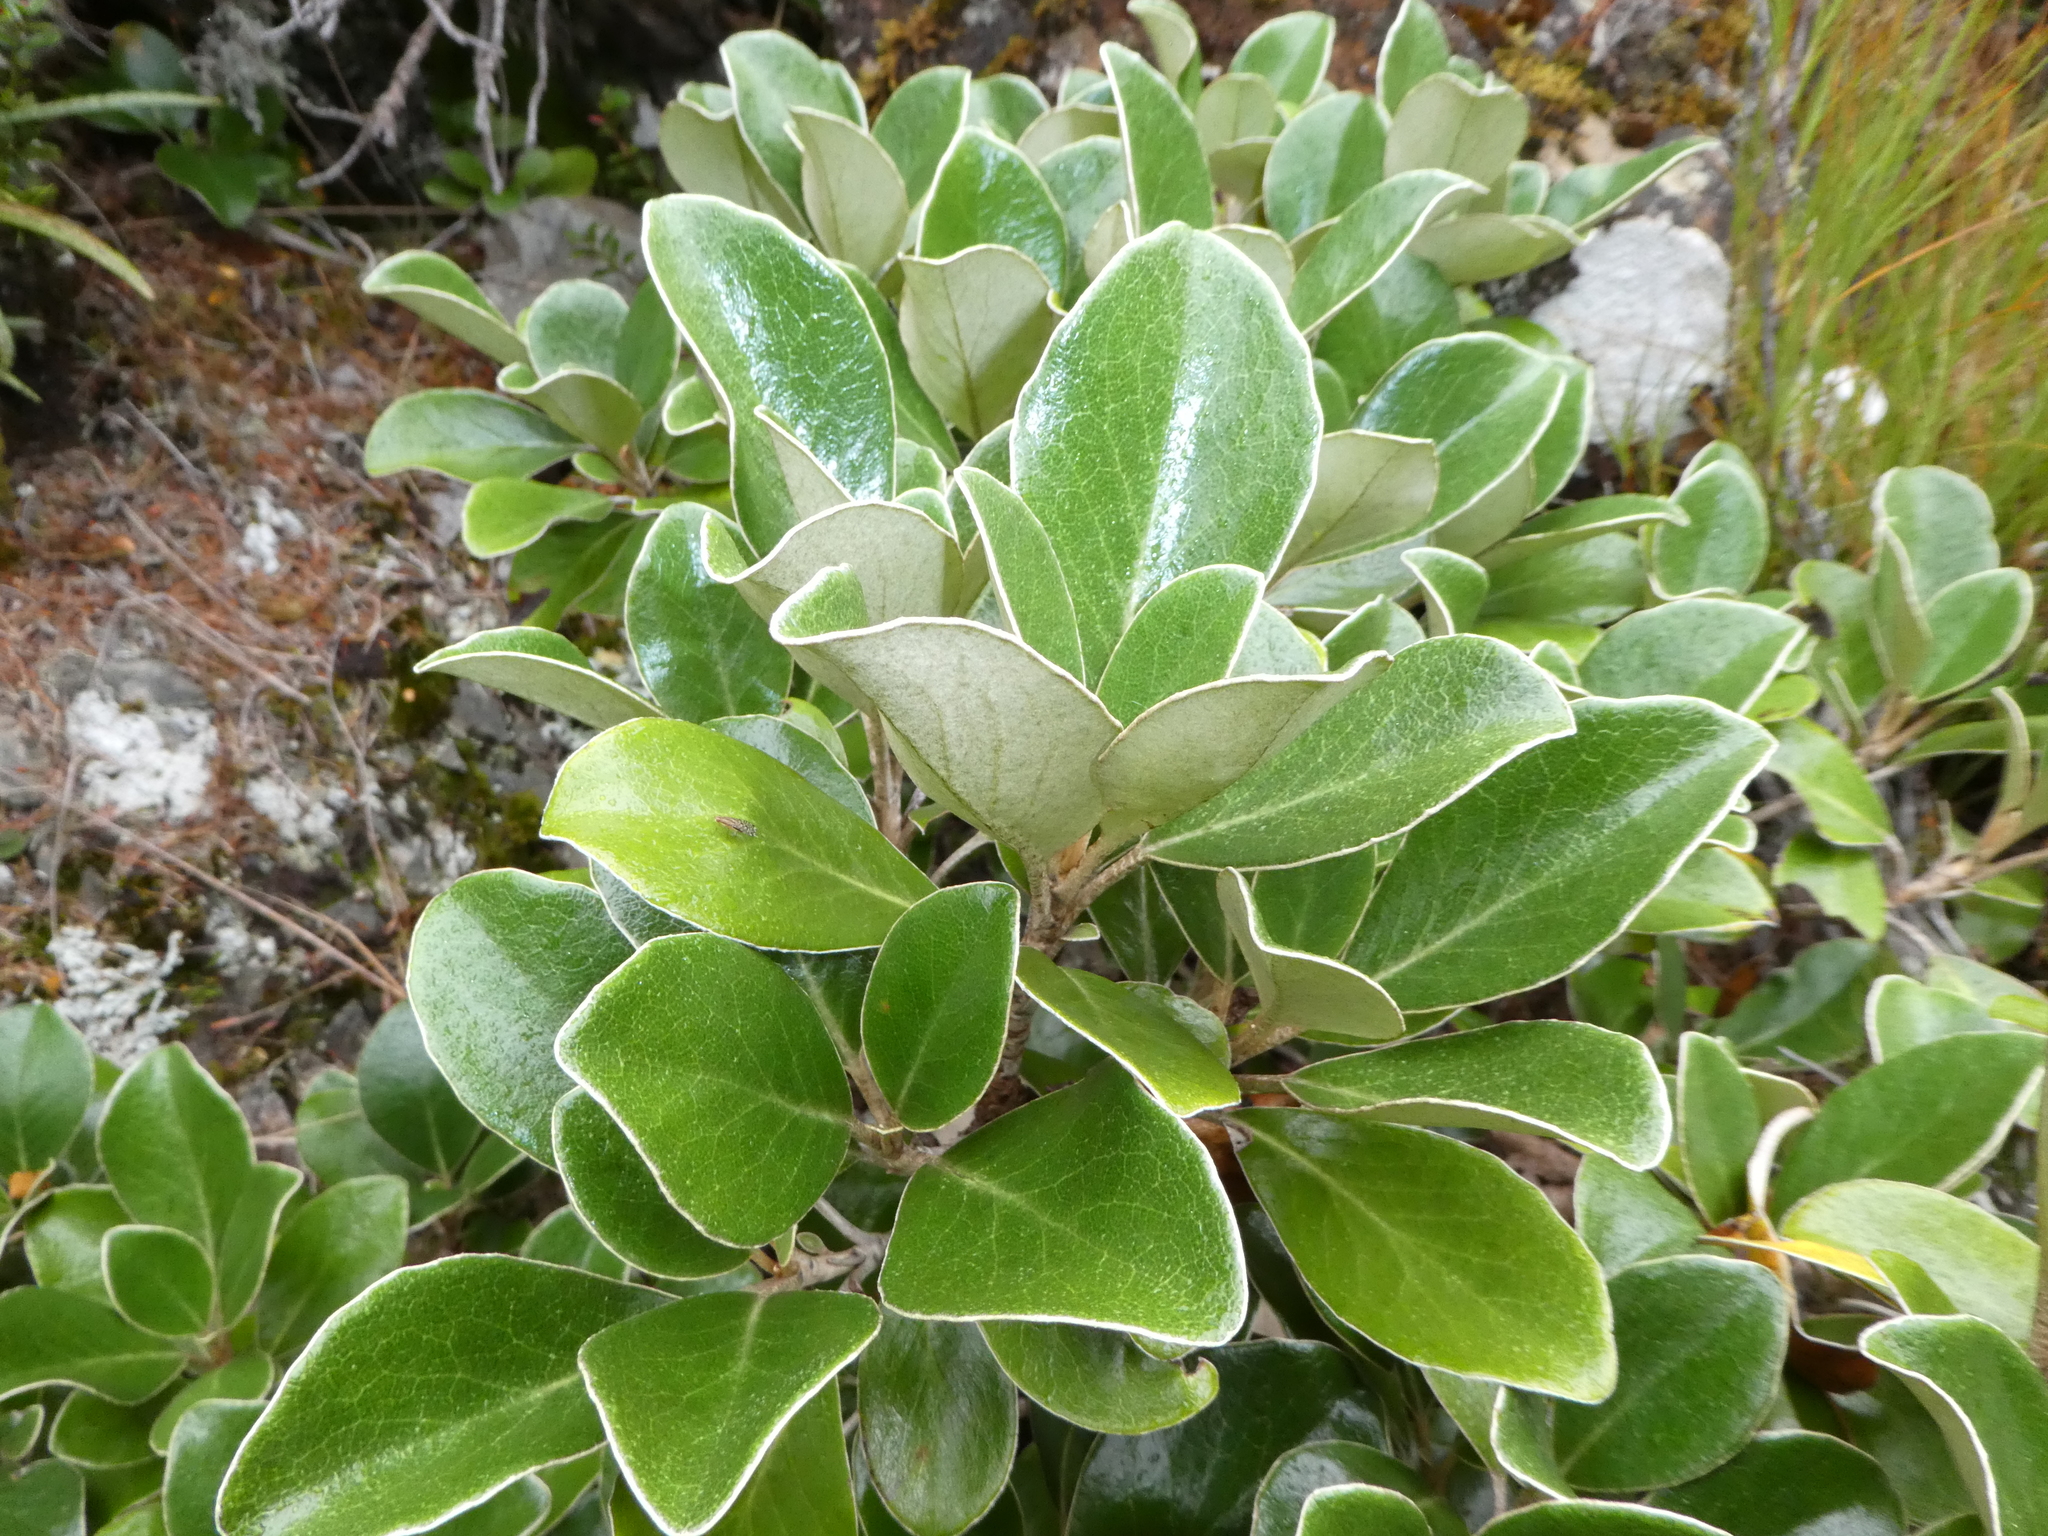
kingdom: Plantae
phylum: Tracheophyta
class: Magnoliopsida
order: Asterales
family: Asteraceae
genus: Brachyglottis
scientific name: Brachyglottis elaeagnifolia
